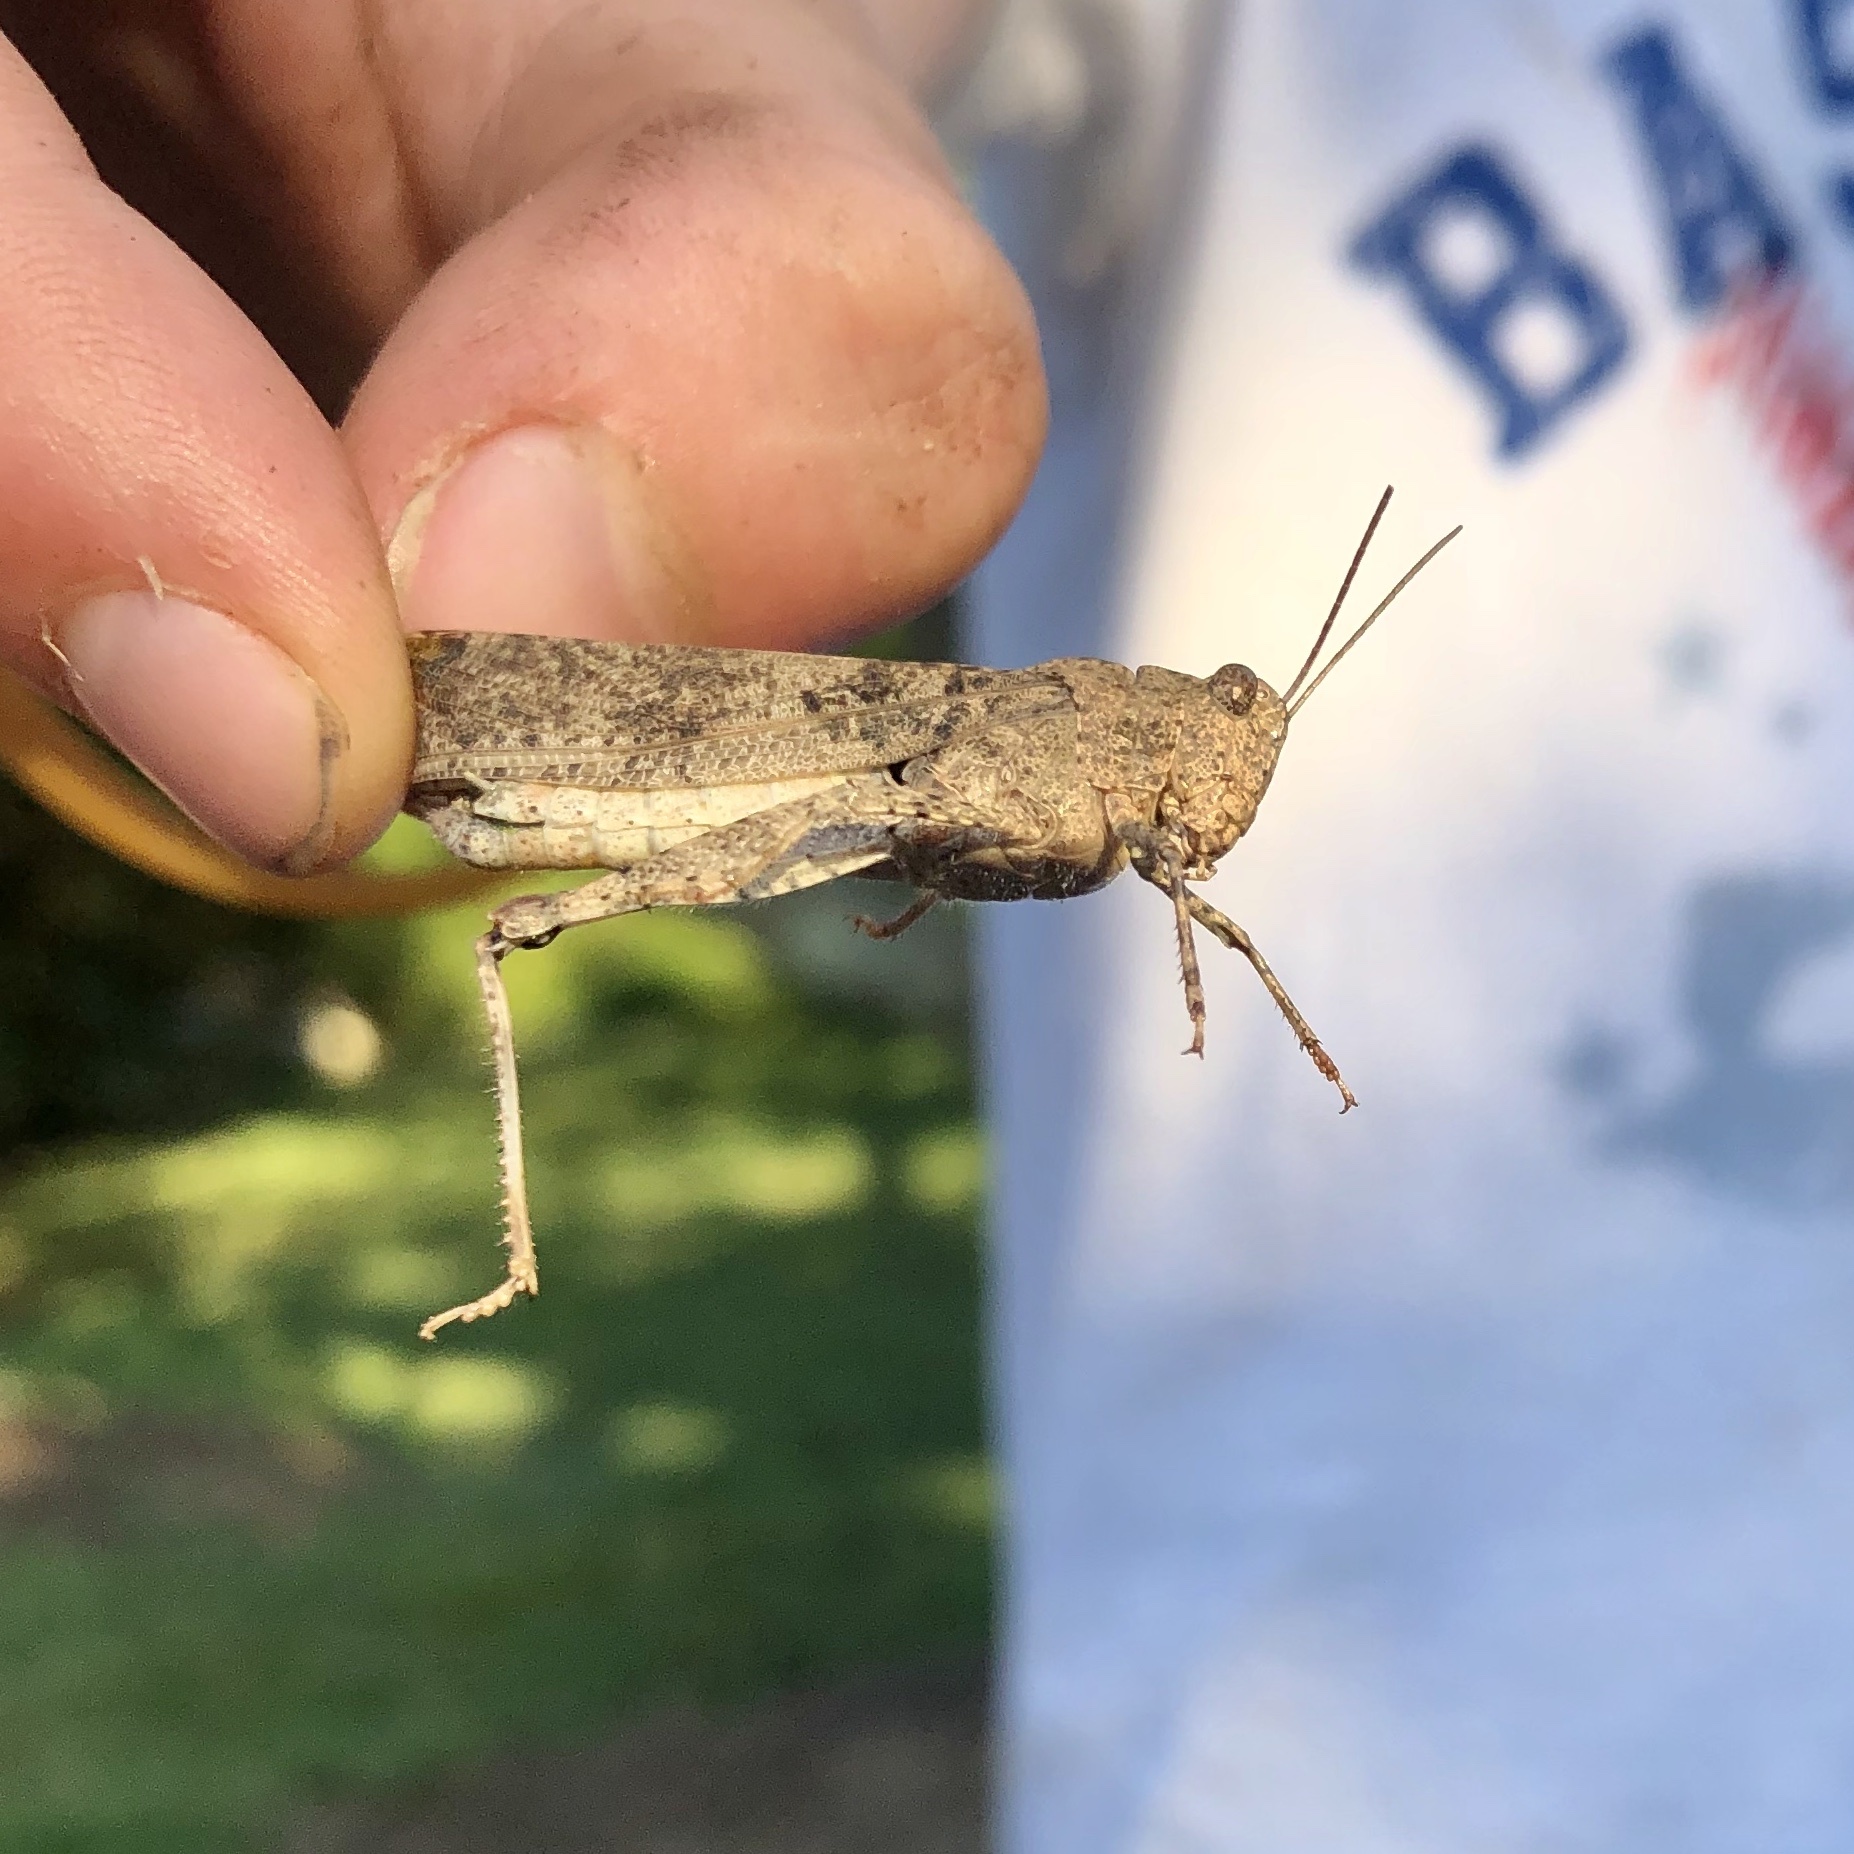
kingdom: Animalia
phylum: Arthropoda
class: Insecta
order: Orthoptera
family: Acrididae
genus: Dissosteira
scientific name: Dissosteira carolina
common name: Carolina grasshopper
